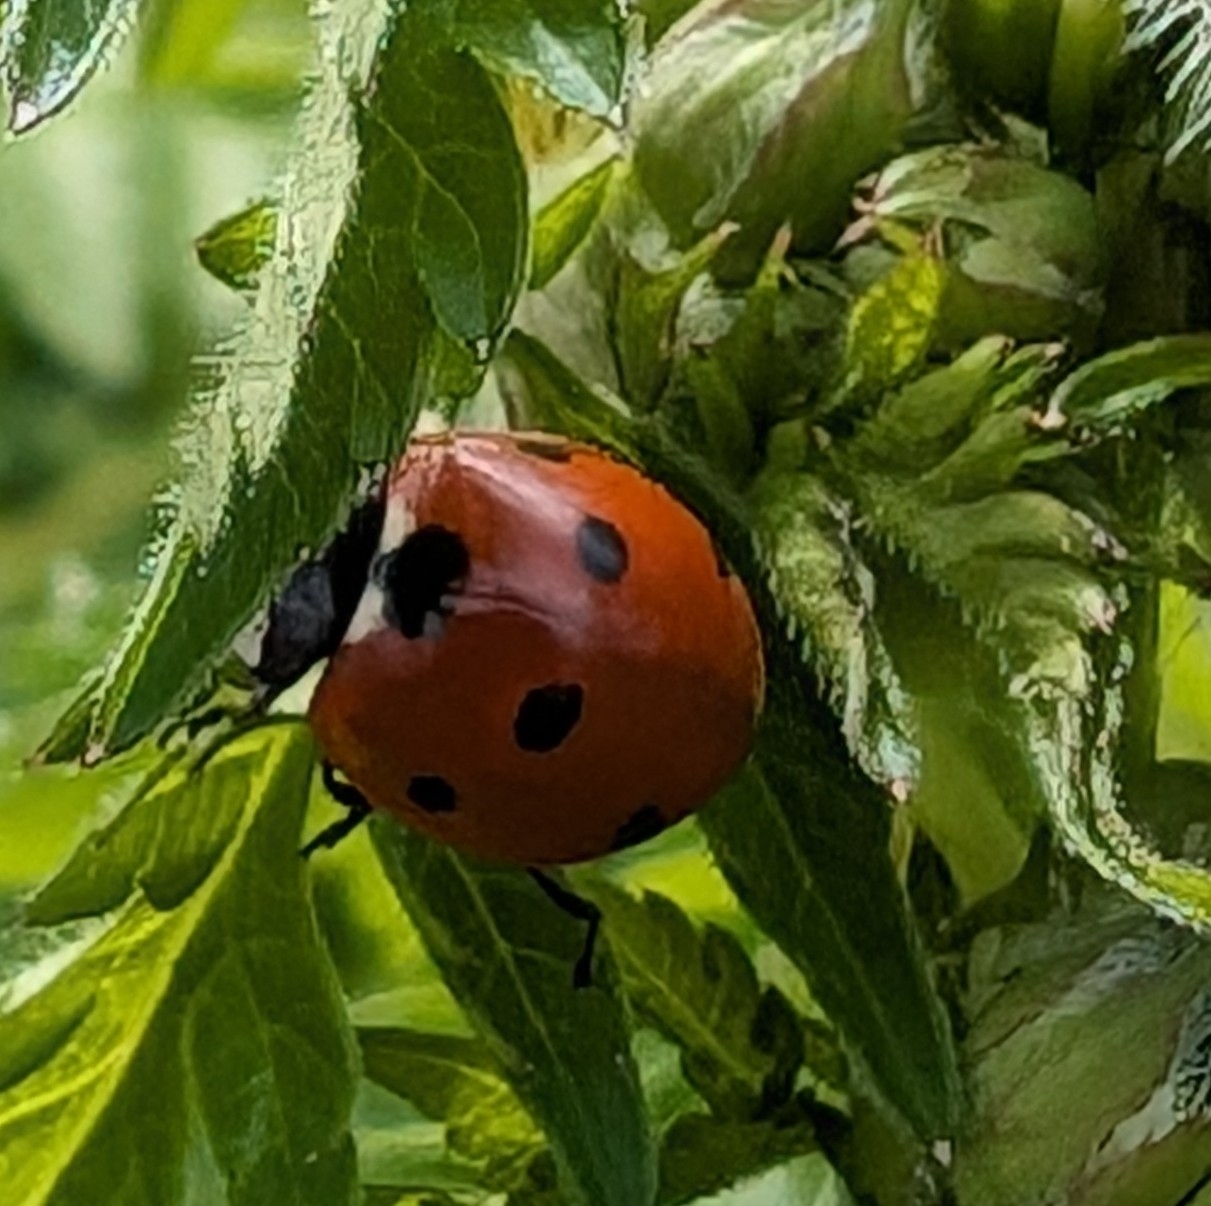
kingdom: Animalia
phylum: Arthropoda
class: Insecta
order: Coleoptera
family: Coccinellidae
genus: Coccinella
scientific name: Coccinella septempunctata
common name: Sevenspotted lady beetle
